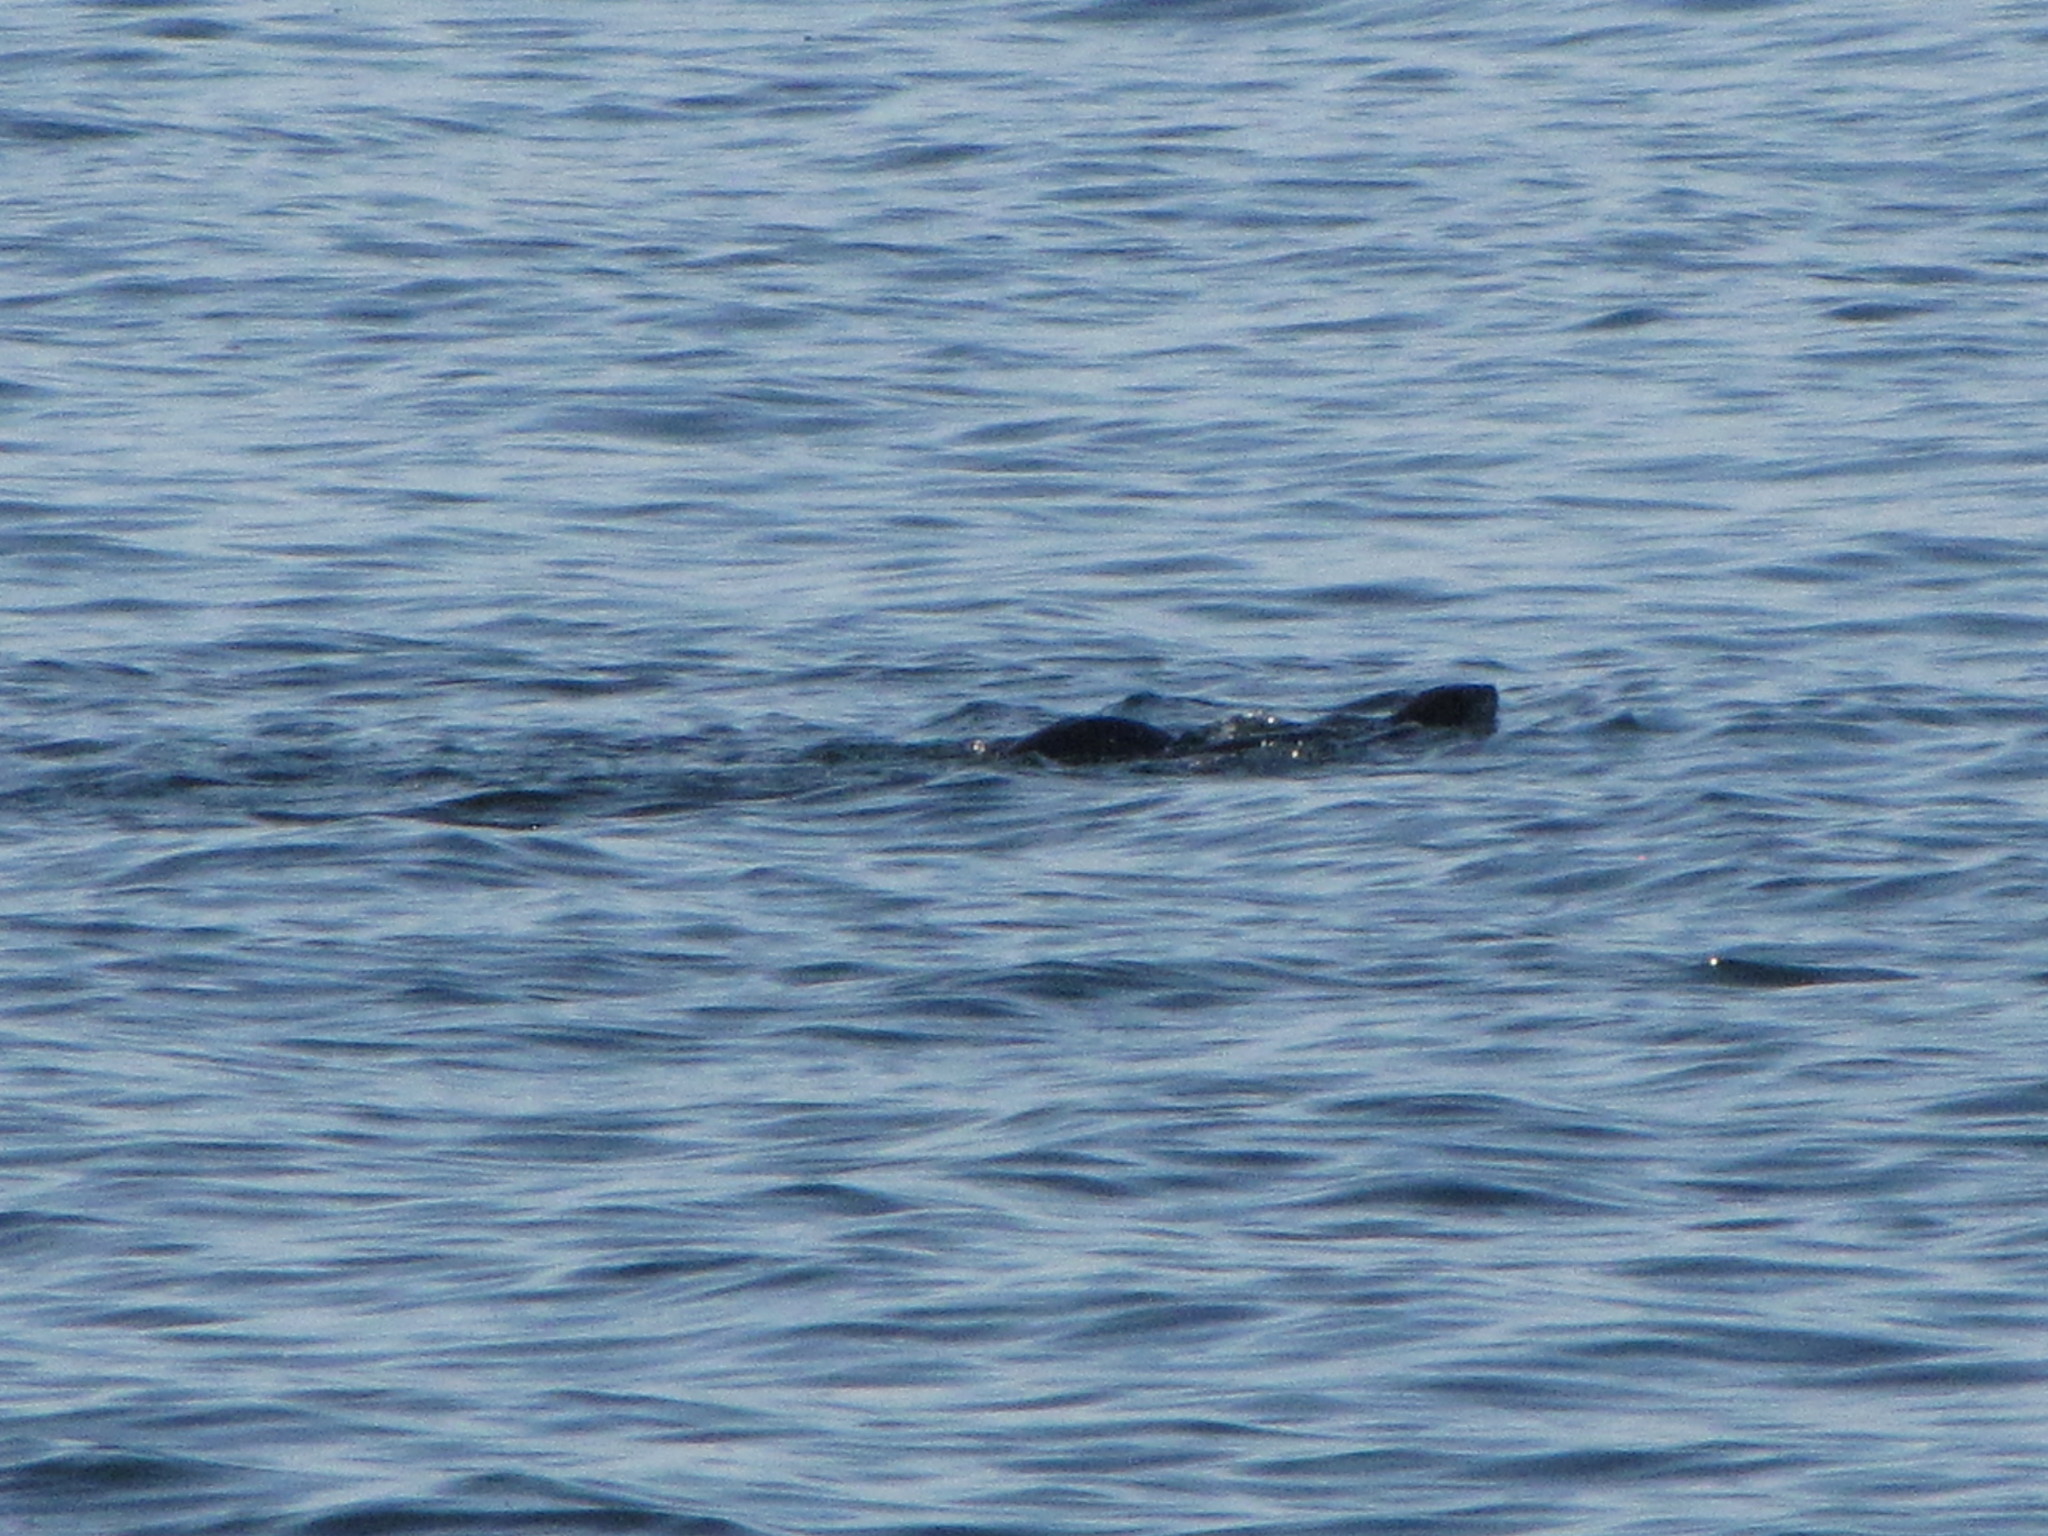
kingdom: Animalia
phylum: Chordata
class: Mammalia
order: Carnivora
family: Mustelidae
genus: Lontra
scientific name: Lontra canadensis
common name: North american river otter
